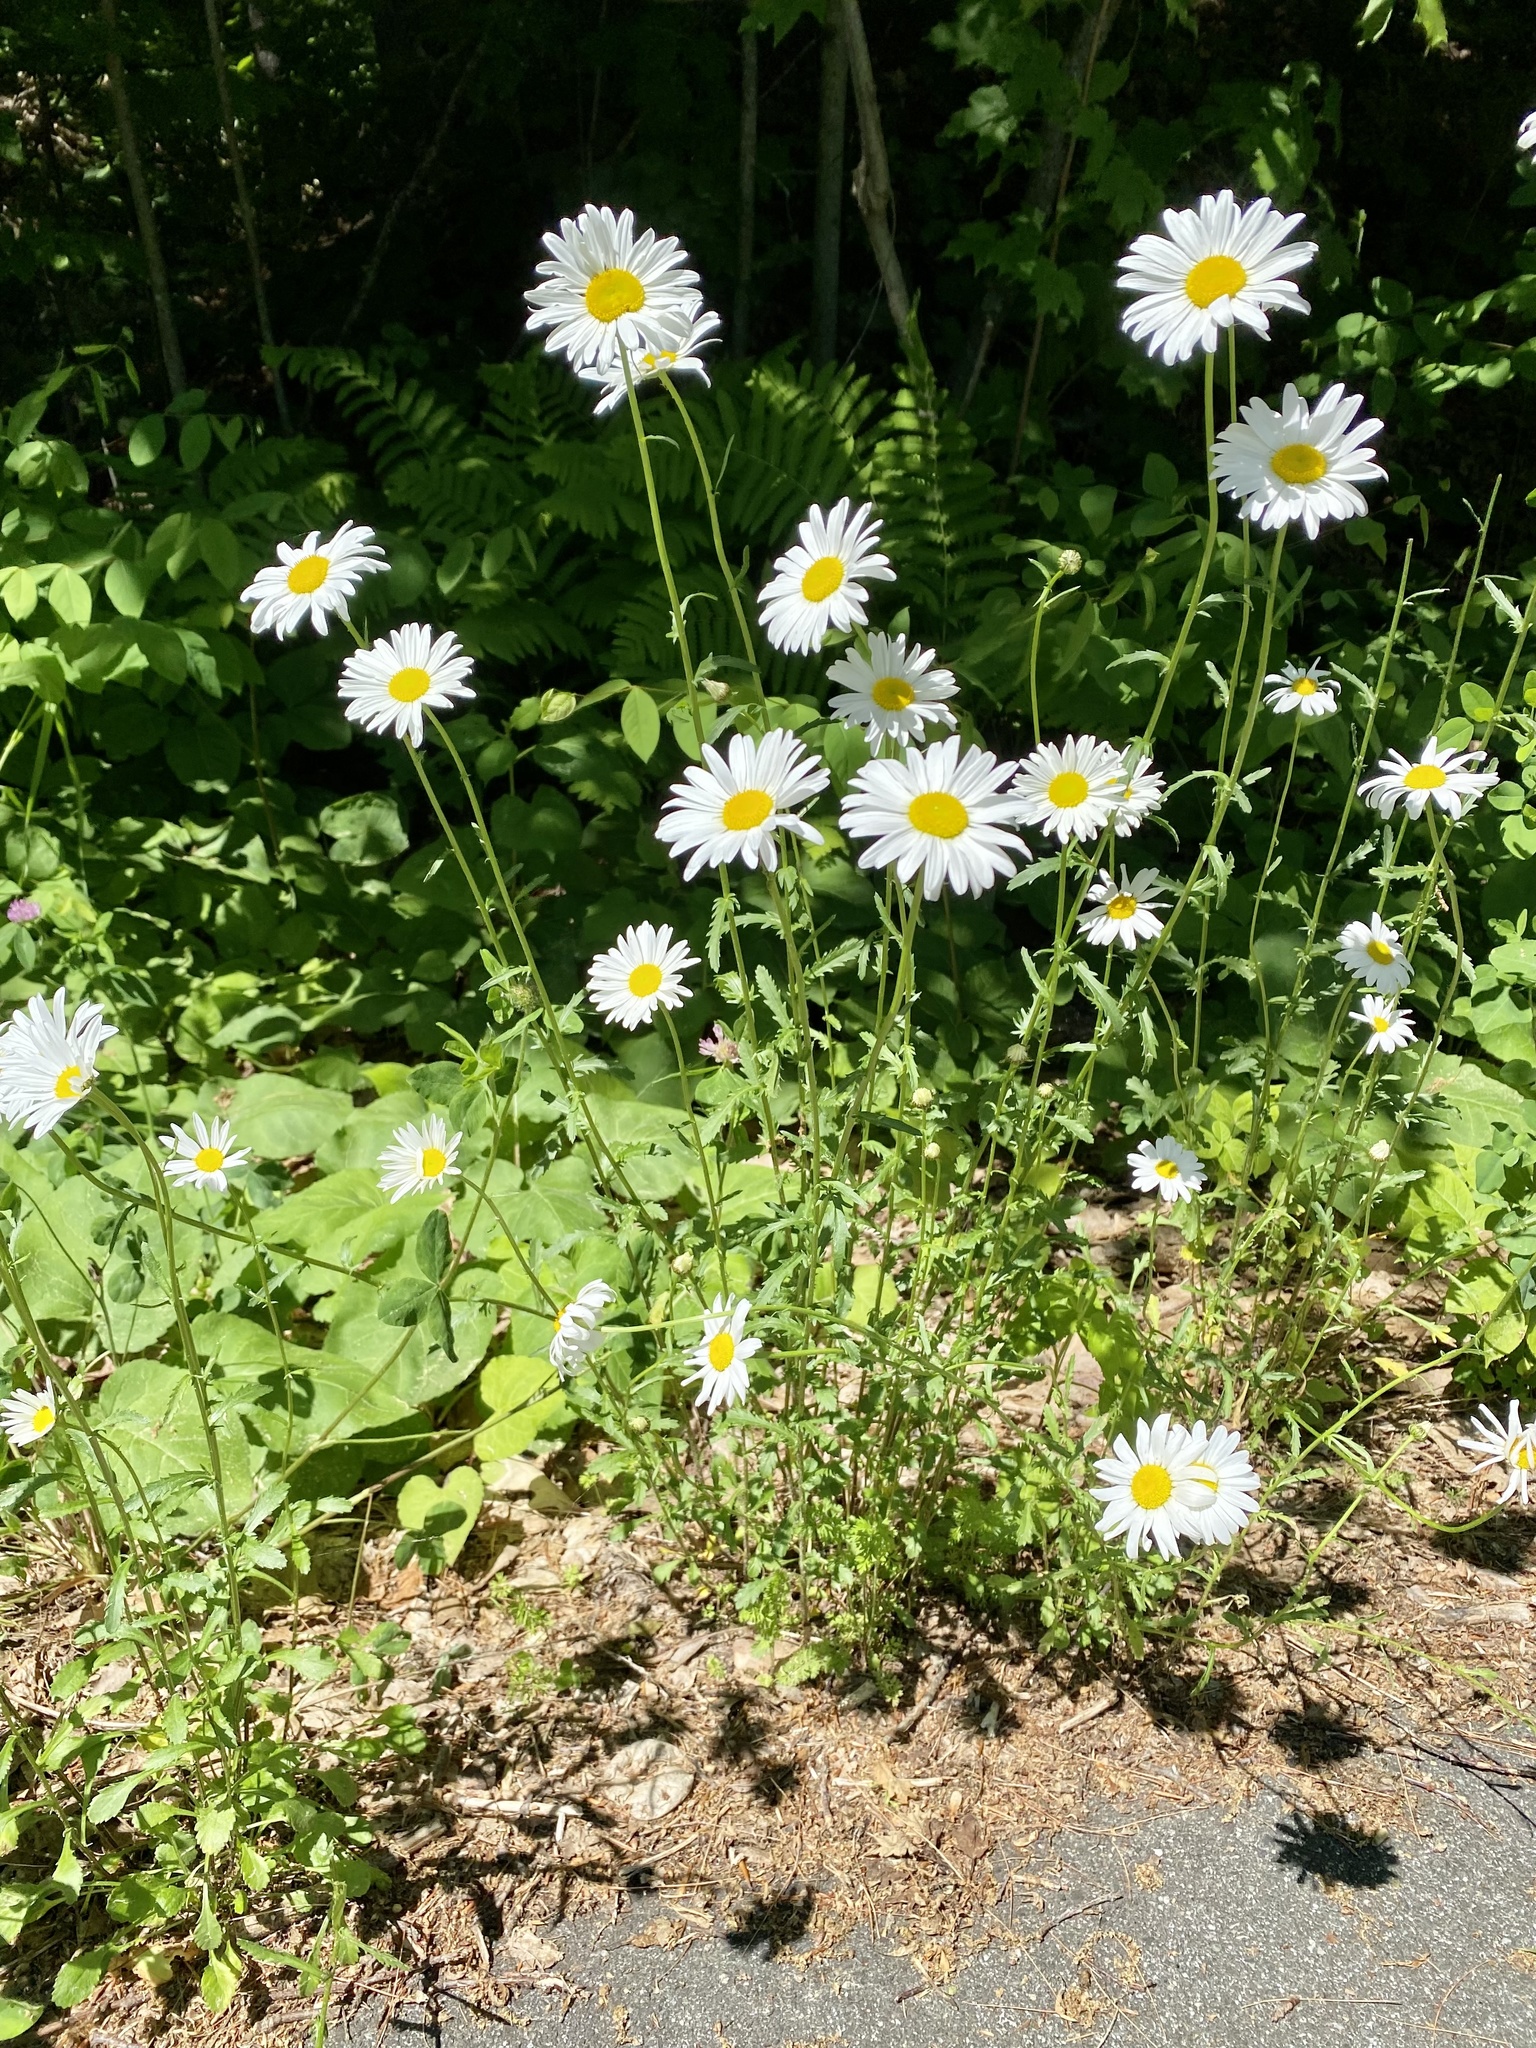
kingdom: Plantae
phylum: Tracheophyta
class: Magnoliopsida
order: Asterales
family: Asteraceae
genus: Leucanthemum
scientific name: Leucanthemum vulgare
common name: Oxeye daisy
